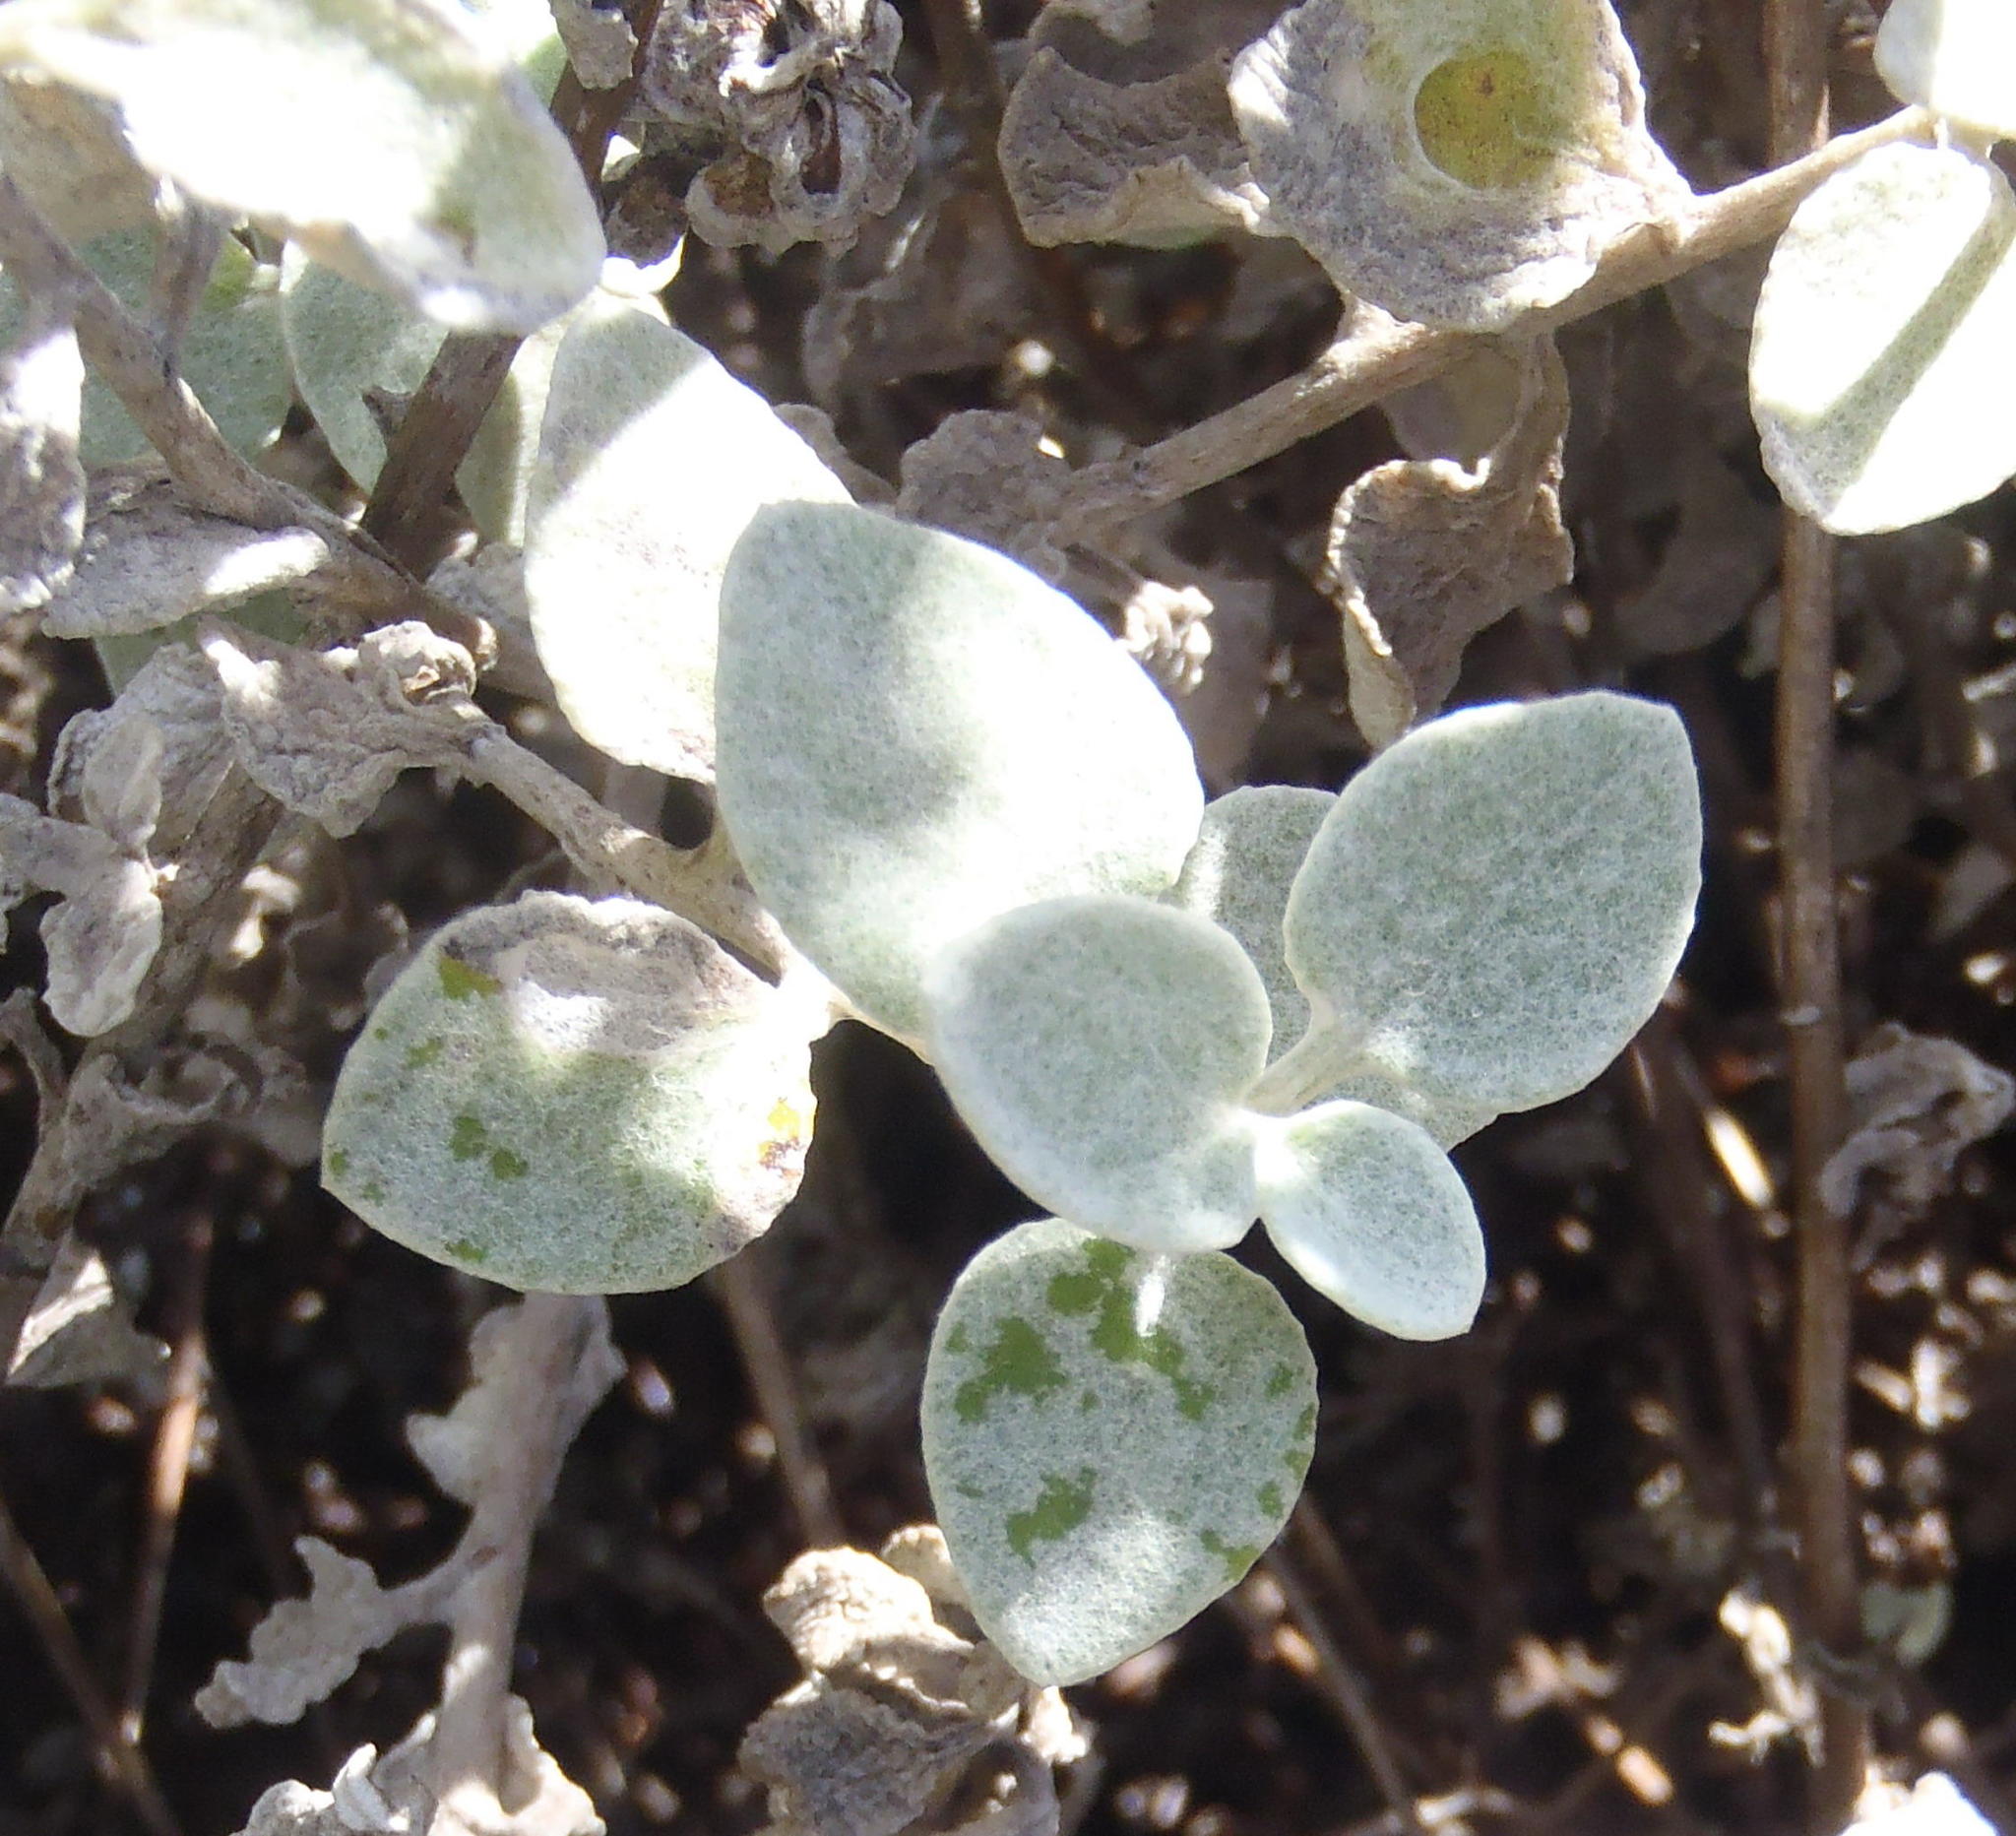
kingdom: Plantae
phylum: Tracheophyta
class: Magnoliopsida
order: Asterales
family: Asteraceae
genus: Helichrysum
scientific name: Helichrysum petiolare
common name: Licorice-plant
